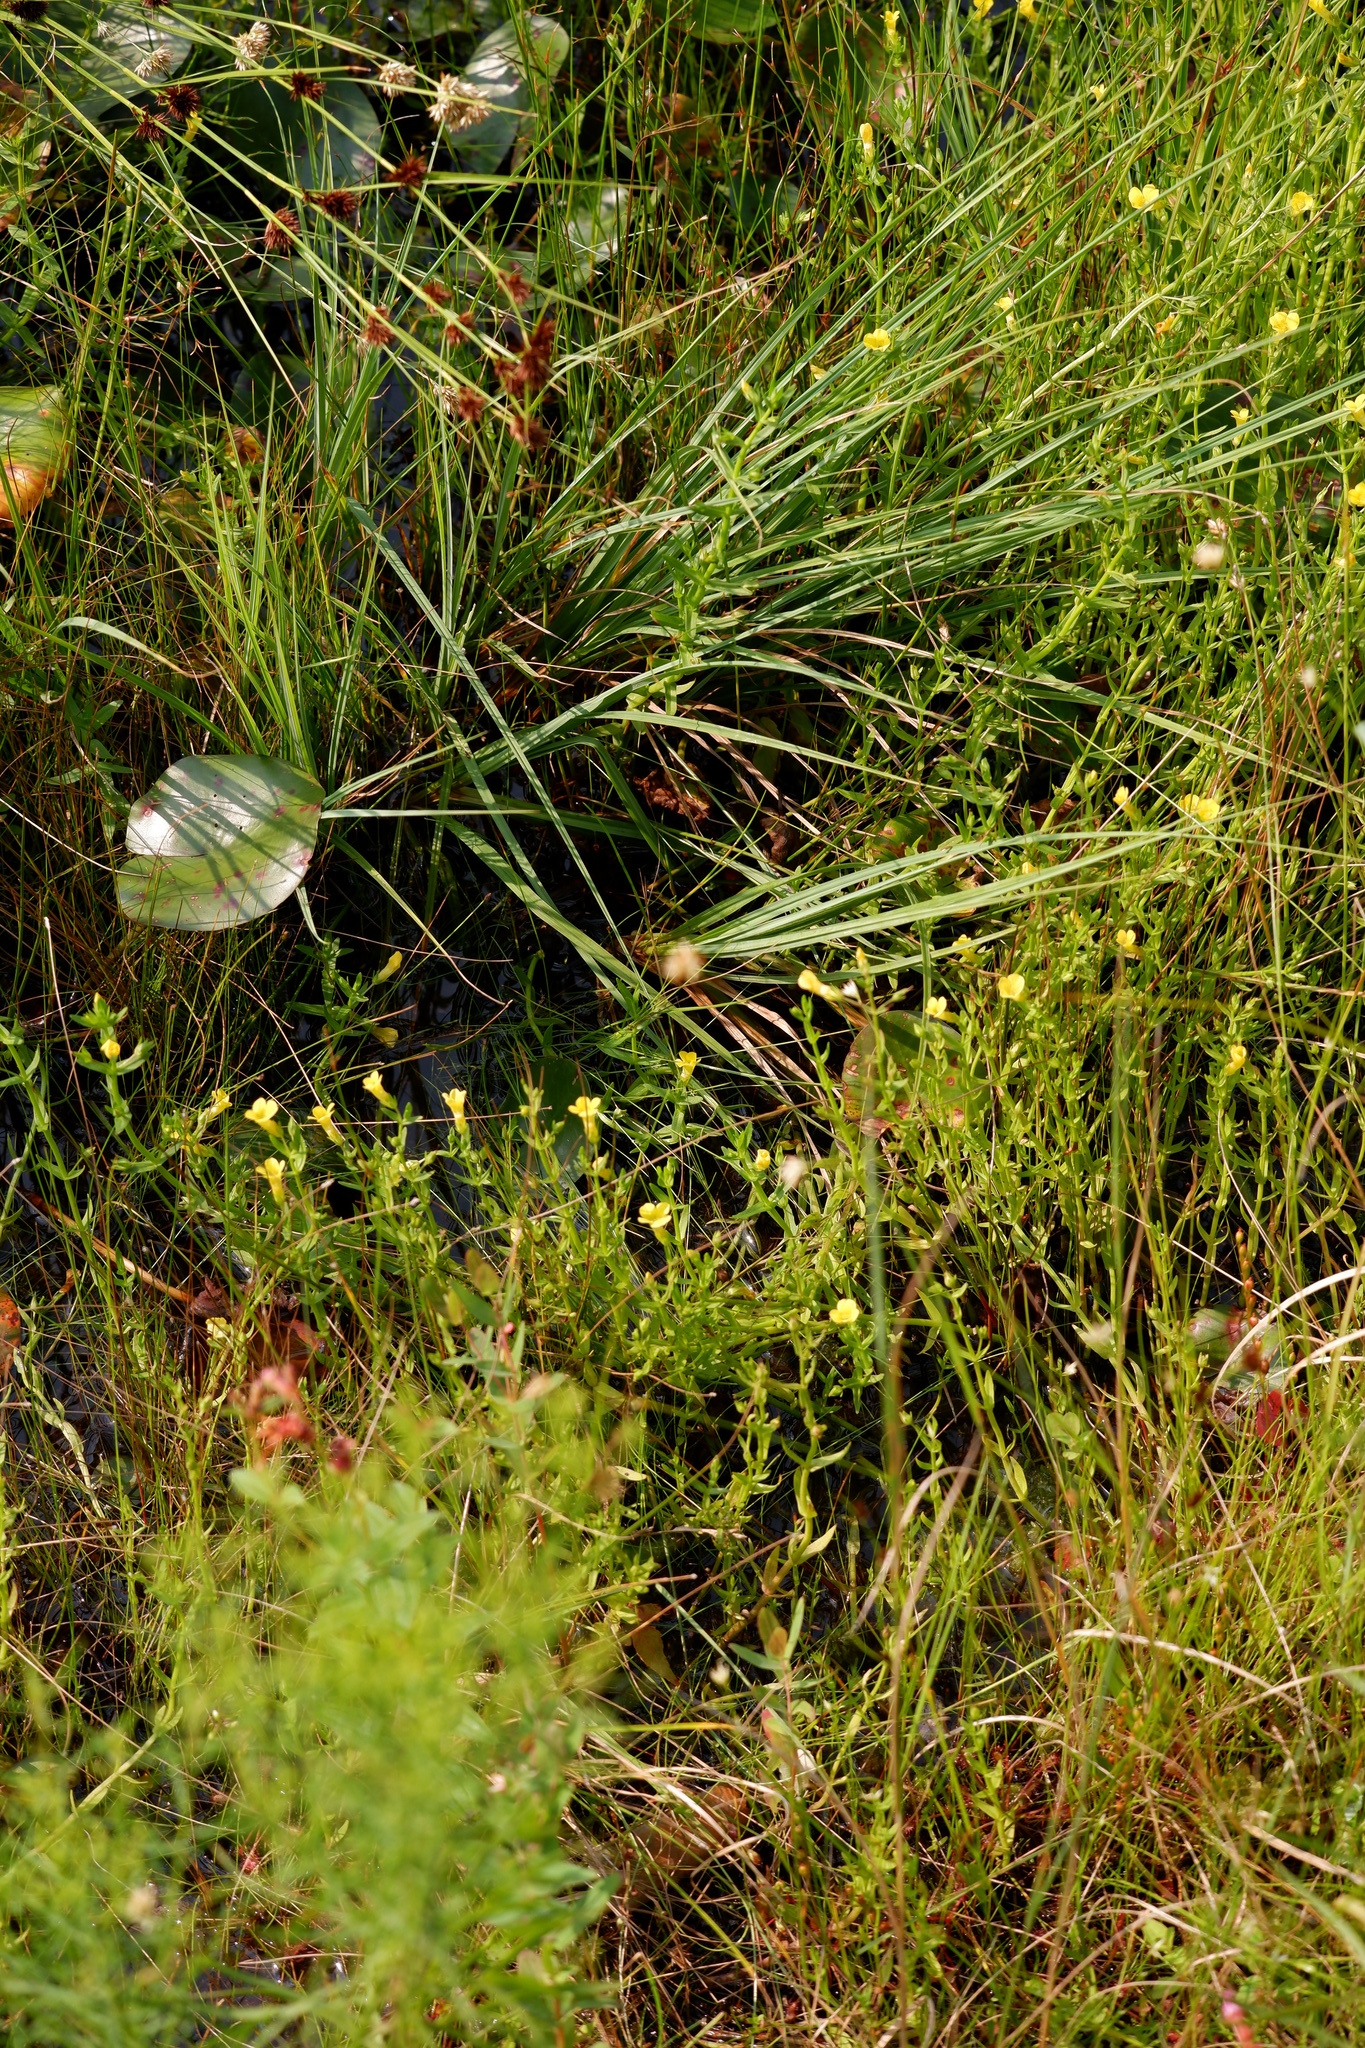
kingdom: Plantae
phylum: Tracheophyta
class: Magnoliopsida
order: Lamiales
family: Plantaginaceae
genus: Gratiola
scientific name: Gratiola lutea
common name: Golden hedge-hyssop
